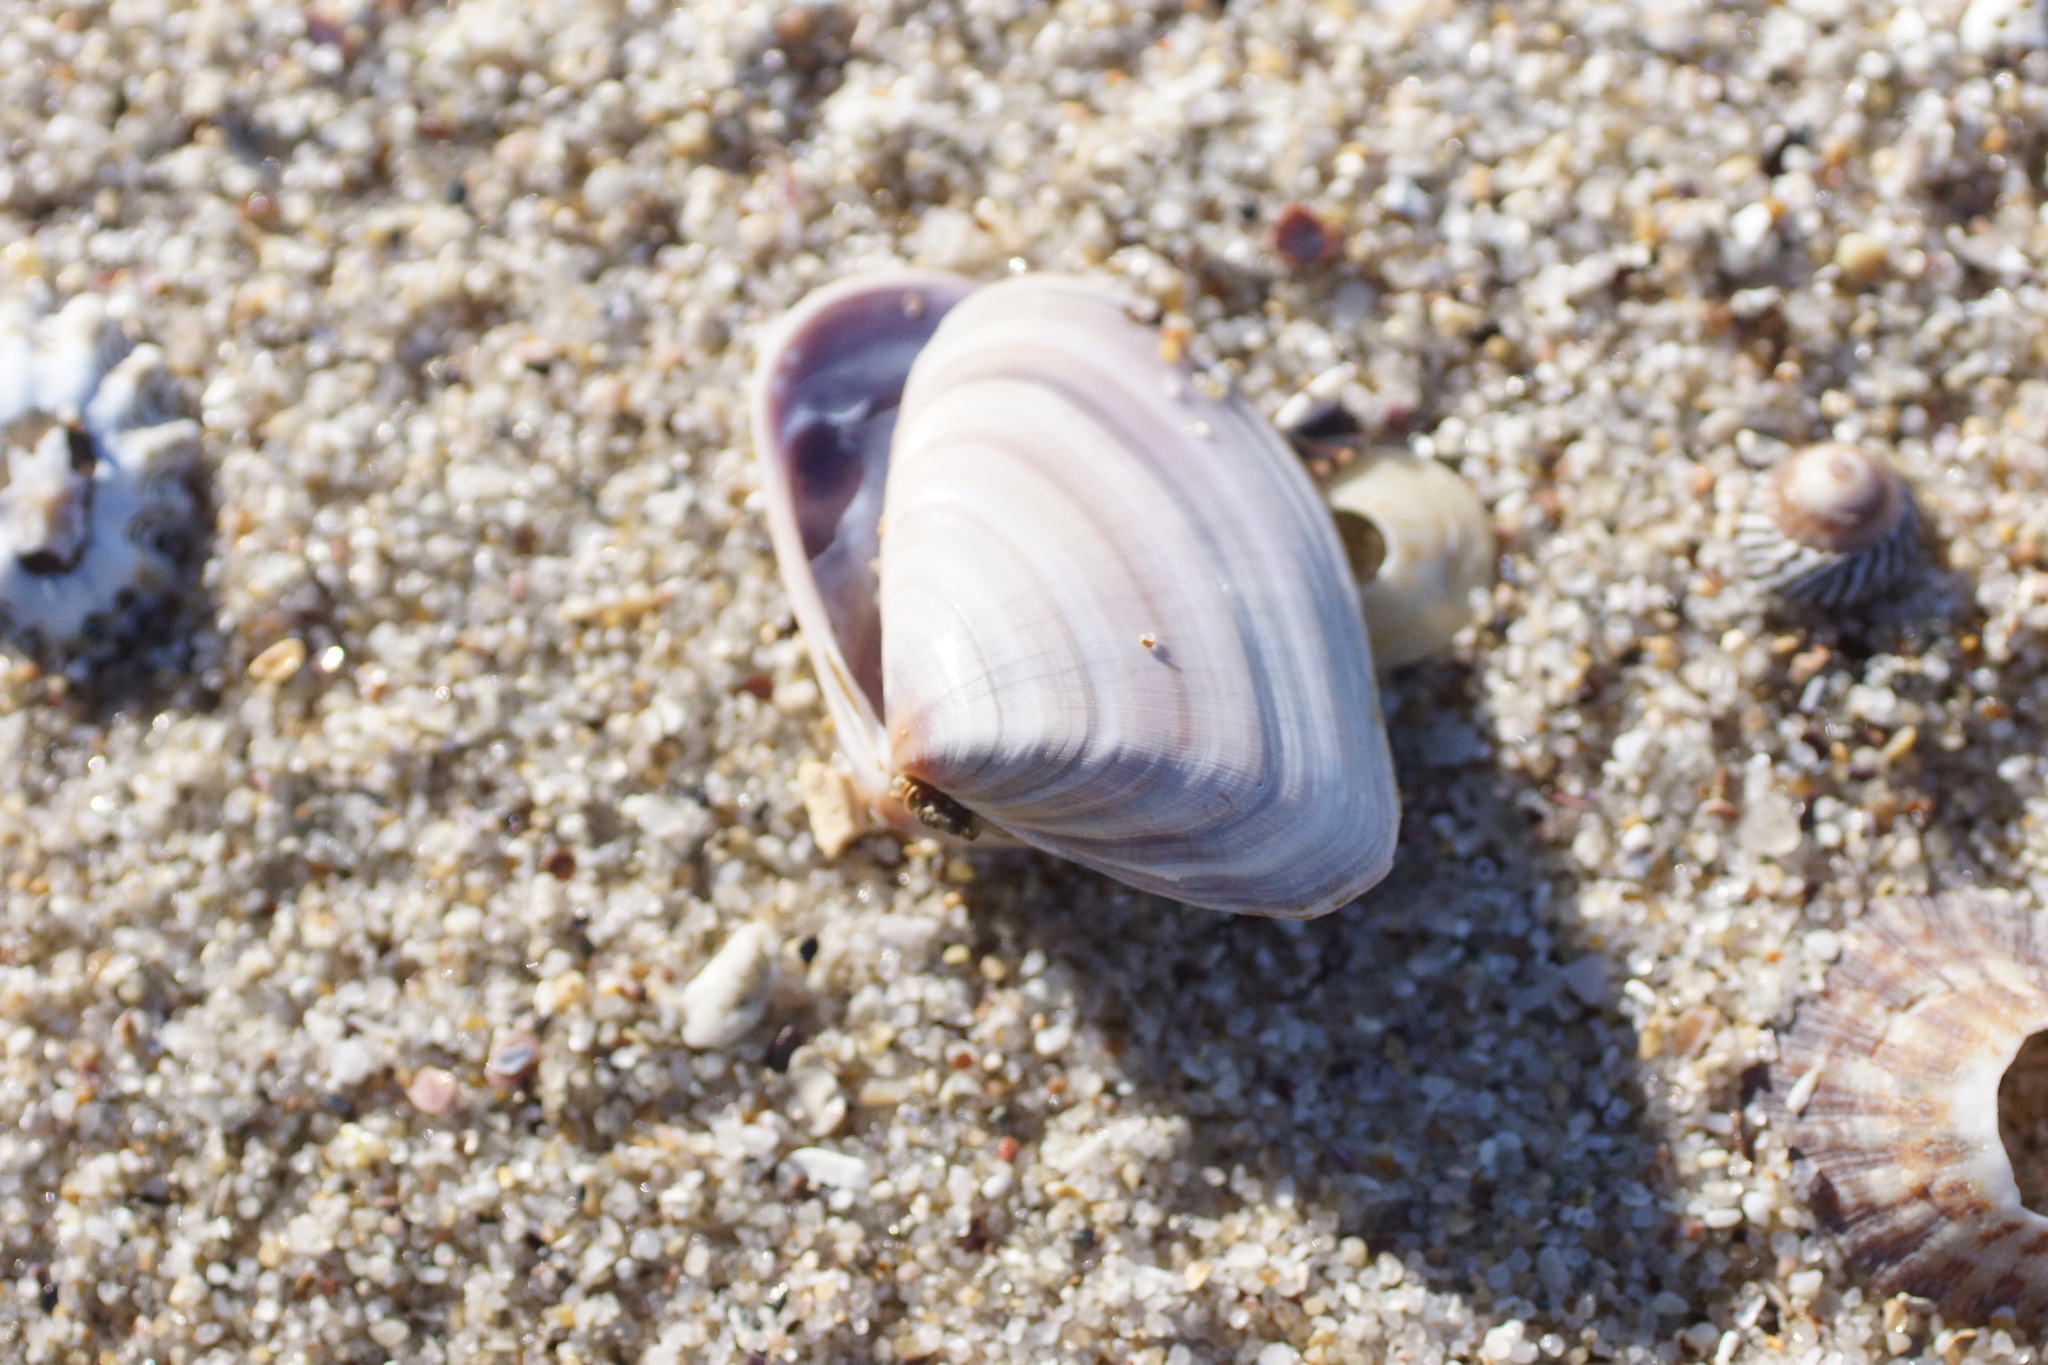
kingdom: Animalia
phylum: Mollusca
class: Bivalvia
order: Cardiida
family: Donacidae
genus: Latona
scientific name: Latona deltoides
